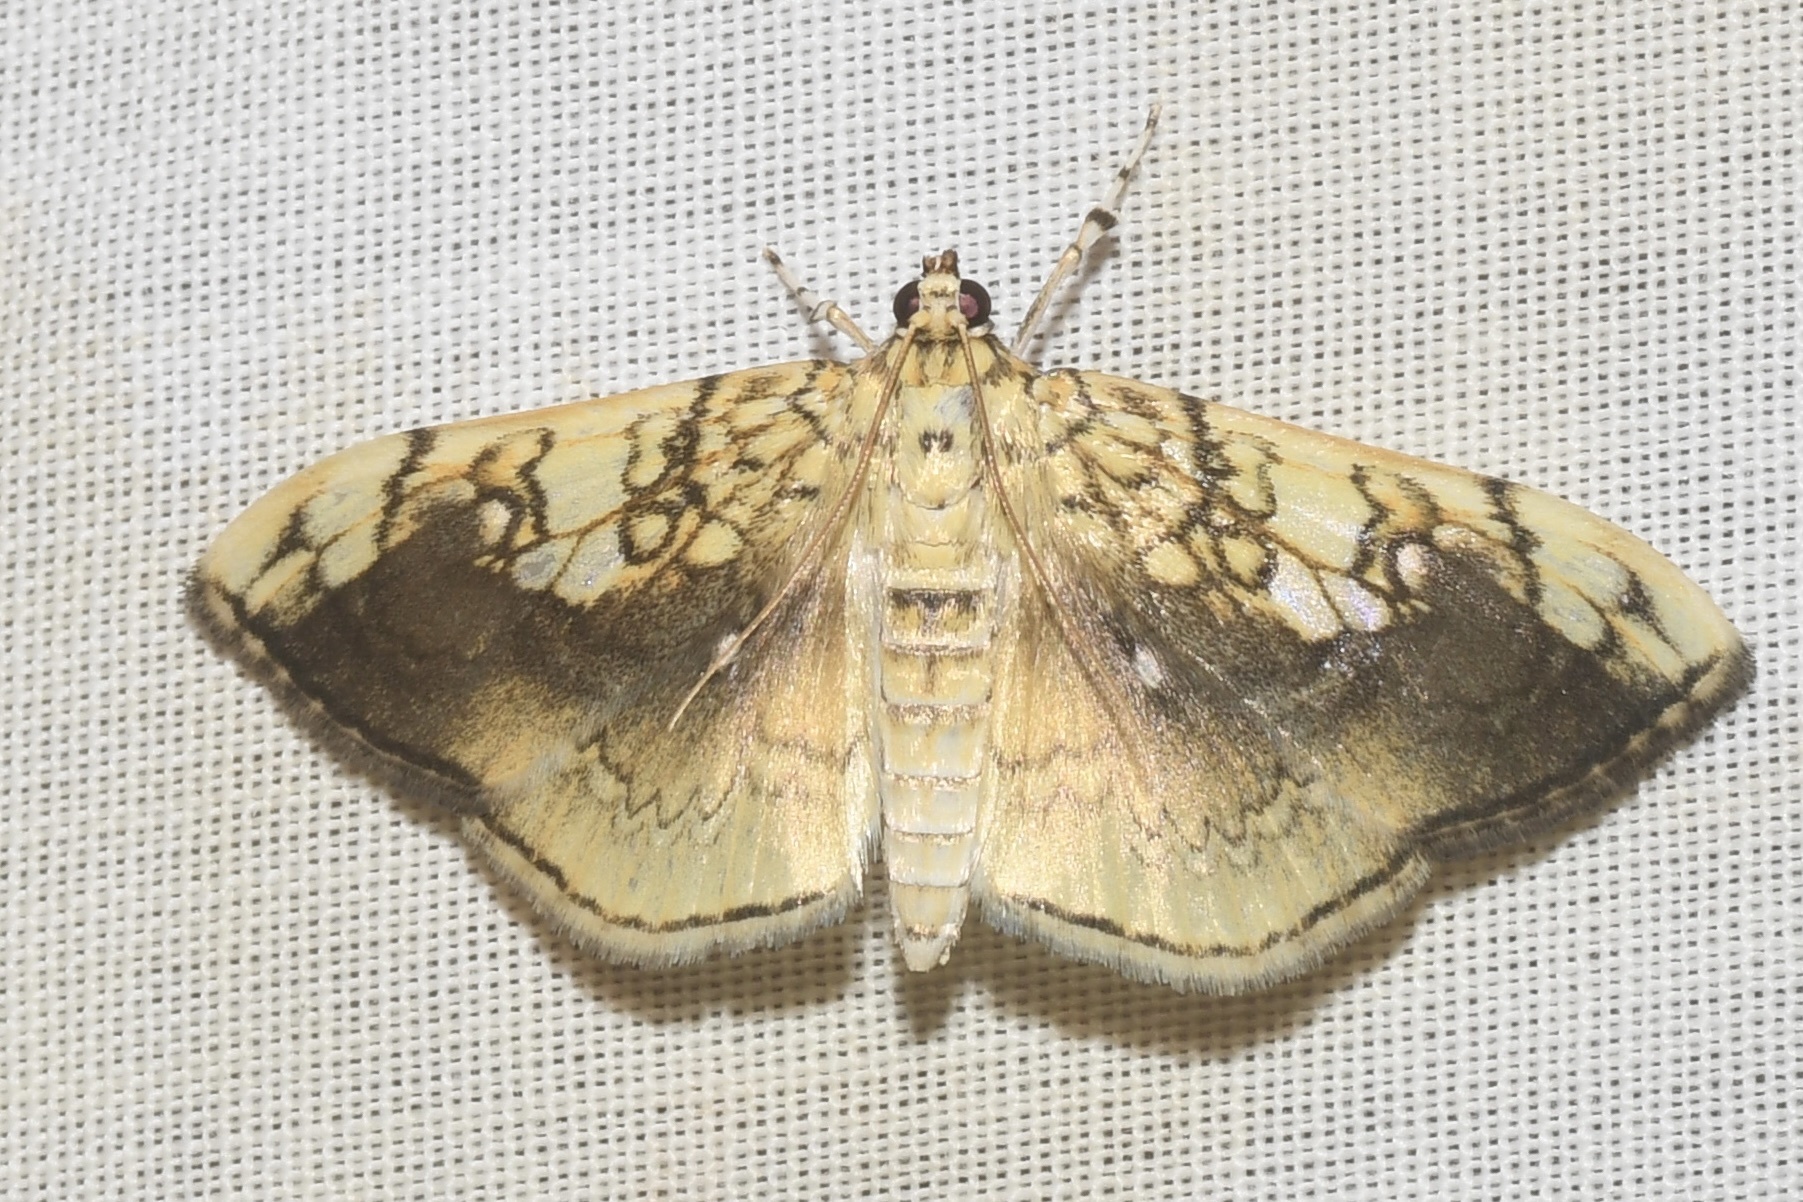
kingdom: Animalia
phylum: Arthropoda
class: Insecta
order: Lepidoptera
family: Crambidae
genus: Pantographa
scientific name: Pantographa limata
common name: Basswood leafroller moth
